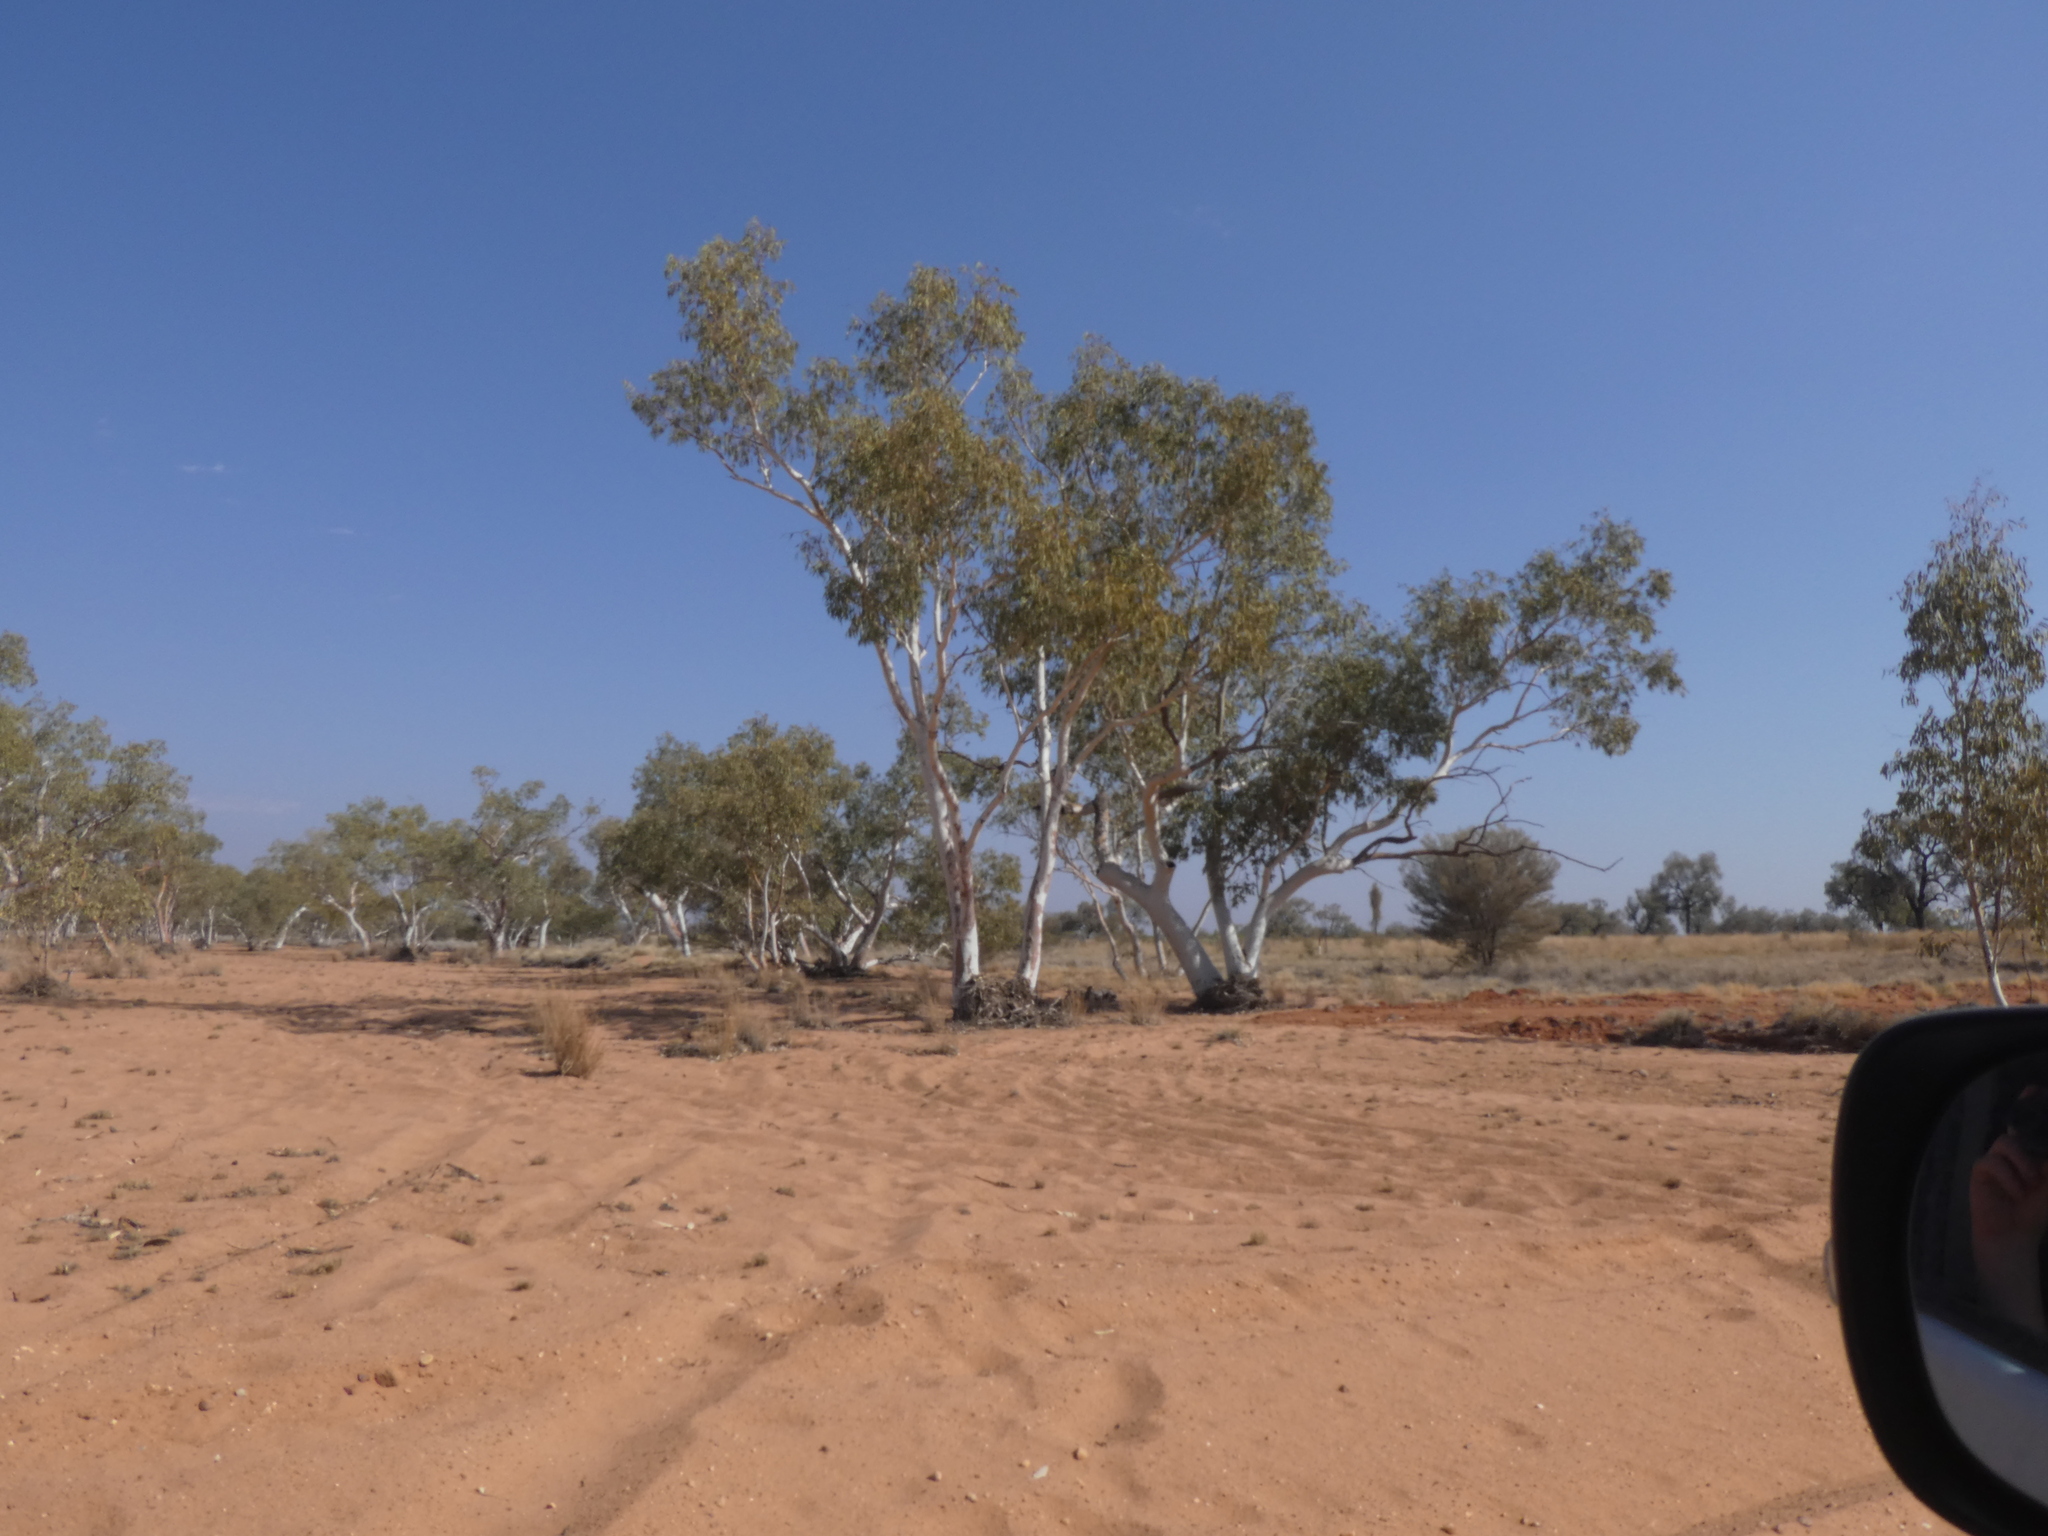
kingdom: Plantae
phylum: Tracheophyta
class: Magnoliopsida
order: Myrtales
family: Myrtaceae
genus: Eucalyptus
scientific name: Eucalyptus camaldulensis
